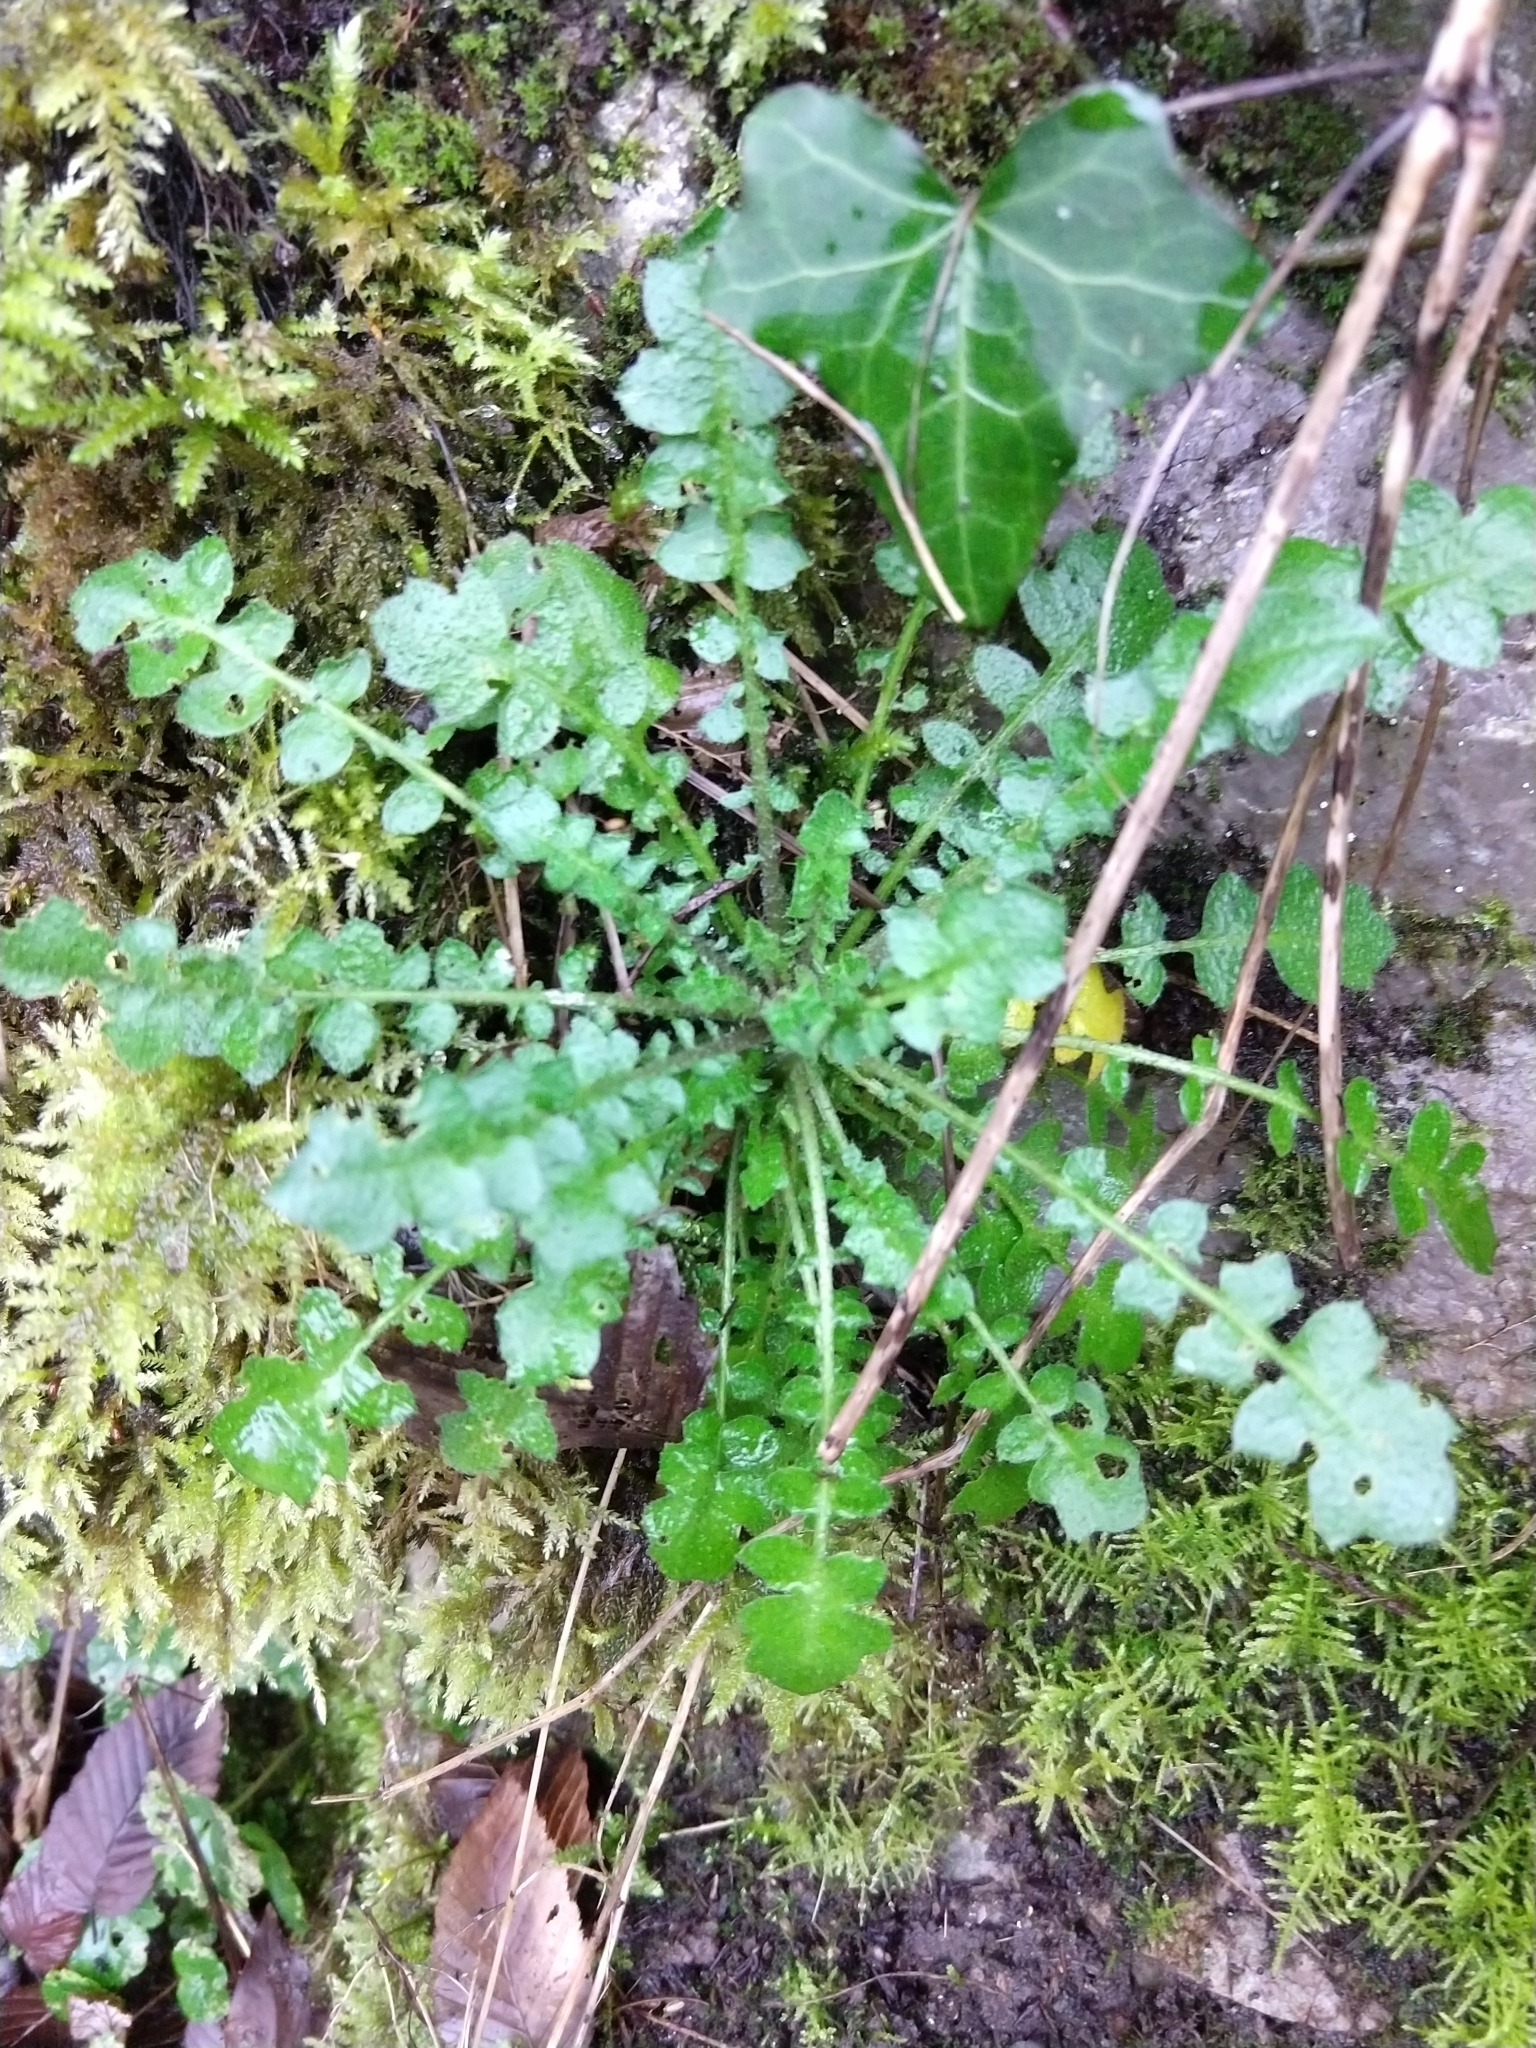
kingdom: Plantae
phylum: Tracheophyta
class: Magnoliopsida
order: Brassicales
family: Brassicaceae
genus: Cardamine
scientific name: Cardamine flexuosa
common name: Woodland bittercress
